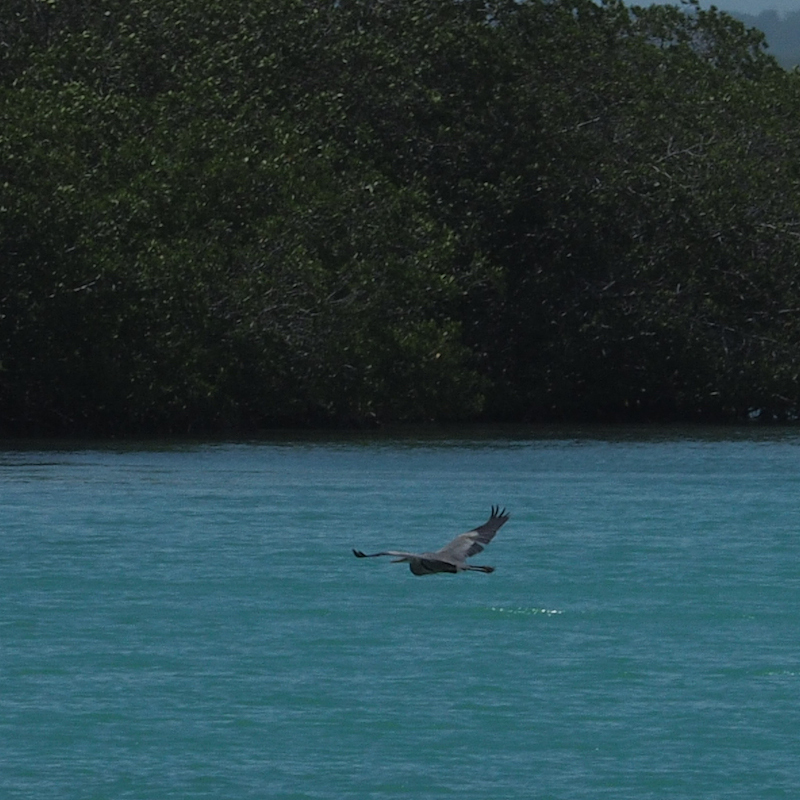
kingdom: Animalia
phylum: Chordata
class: Aves
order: Pelecaniformes
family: Ardeidae
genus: Ardea
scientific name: Ardea herodias
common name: Great blue heron
